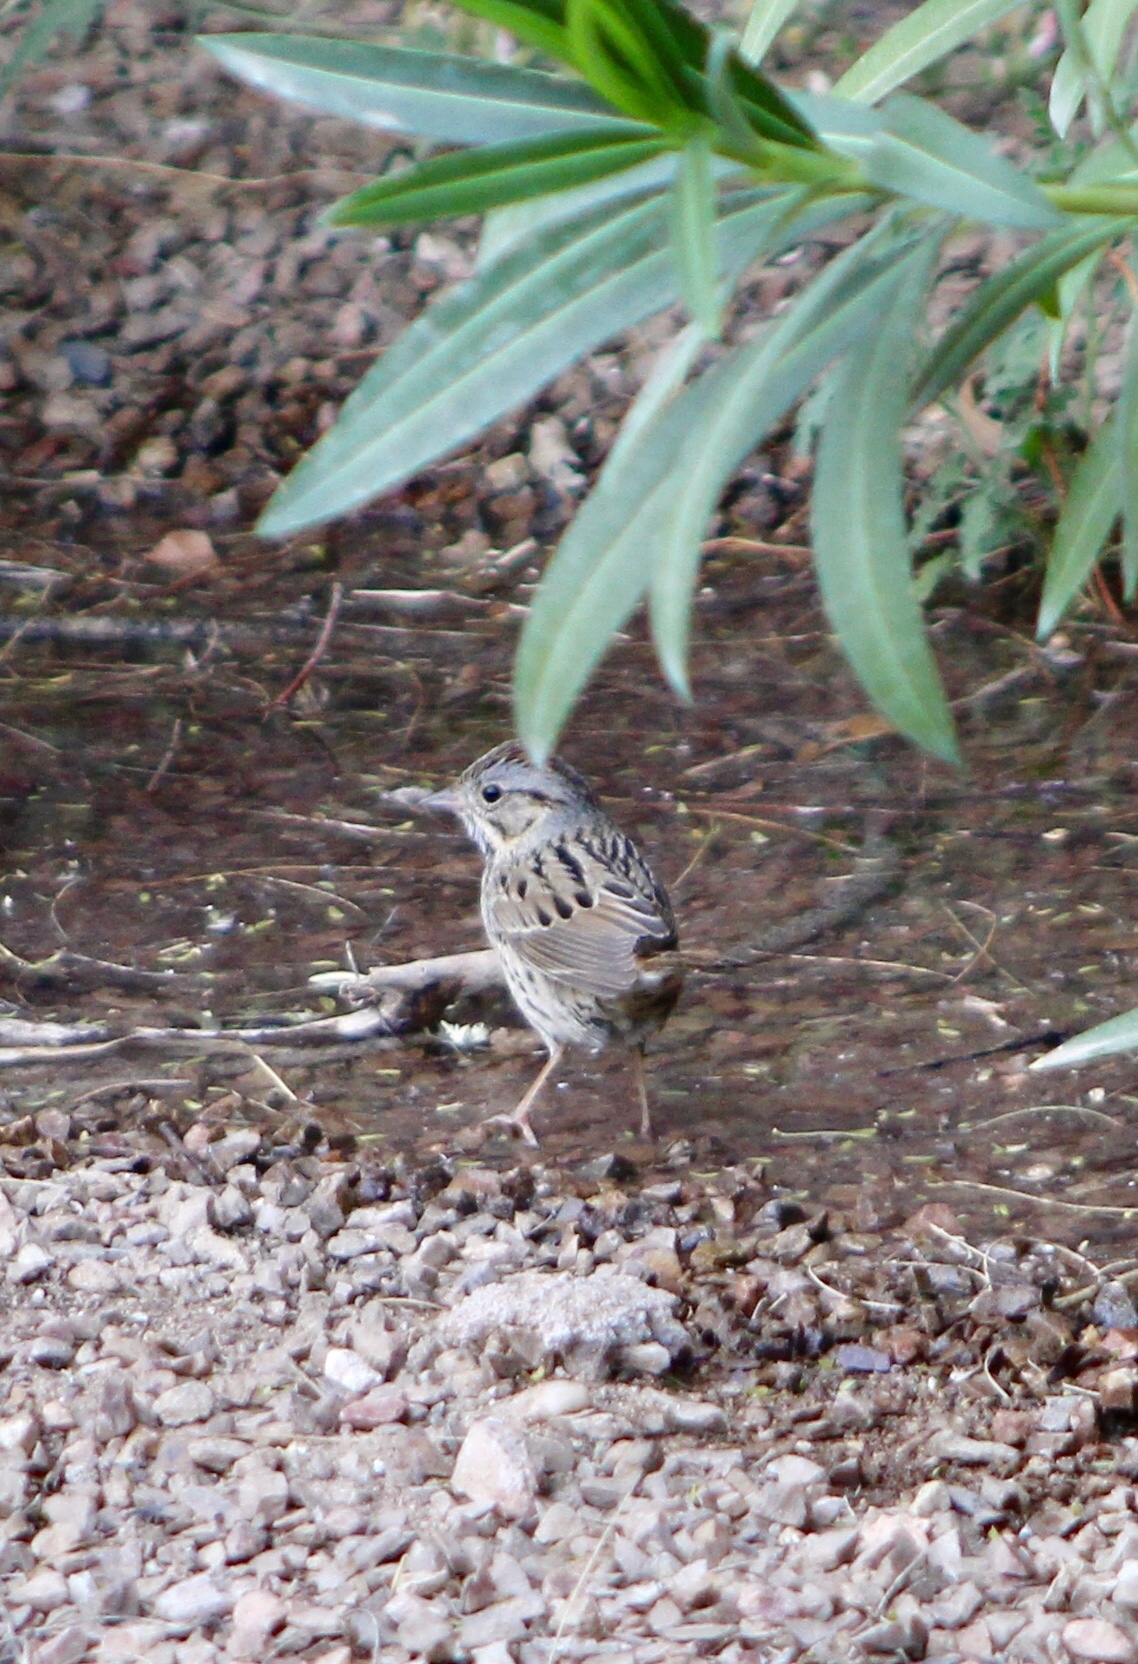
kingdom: Animalia
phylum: Chordata
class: Aves
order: Passeriformes
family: Passerellidae
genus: Melospiza
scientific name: Melospiza lincolnii
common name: Lincoln's sparrow
